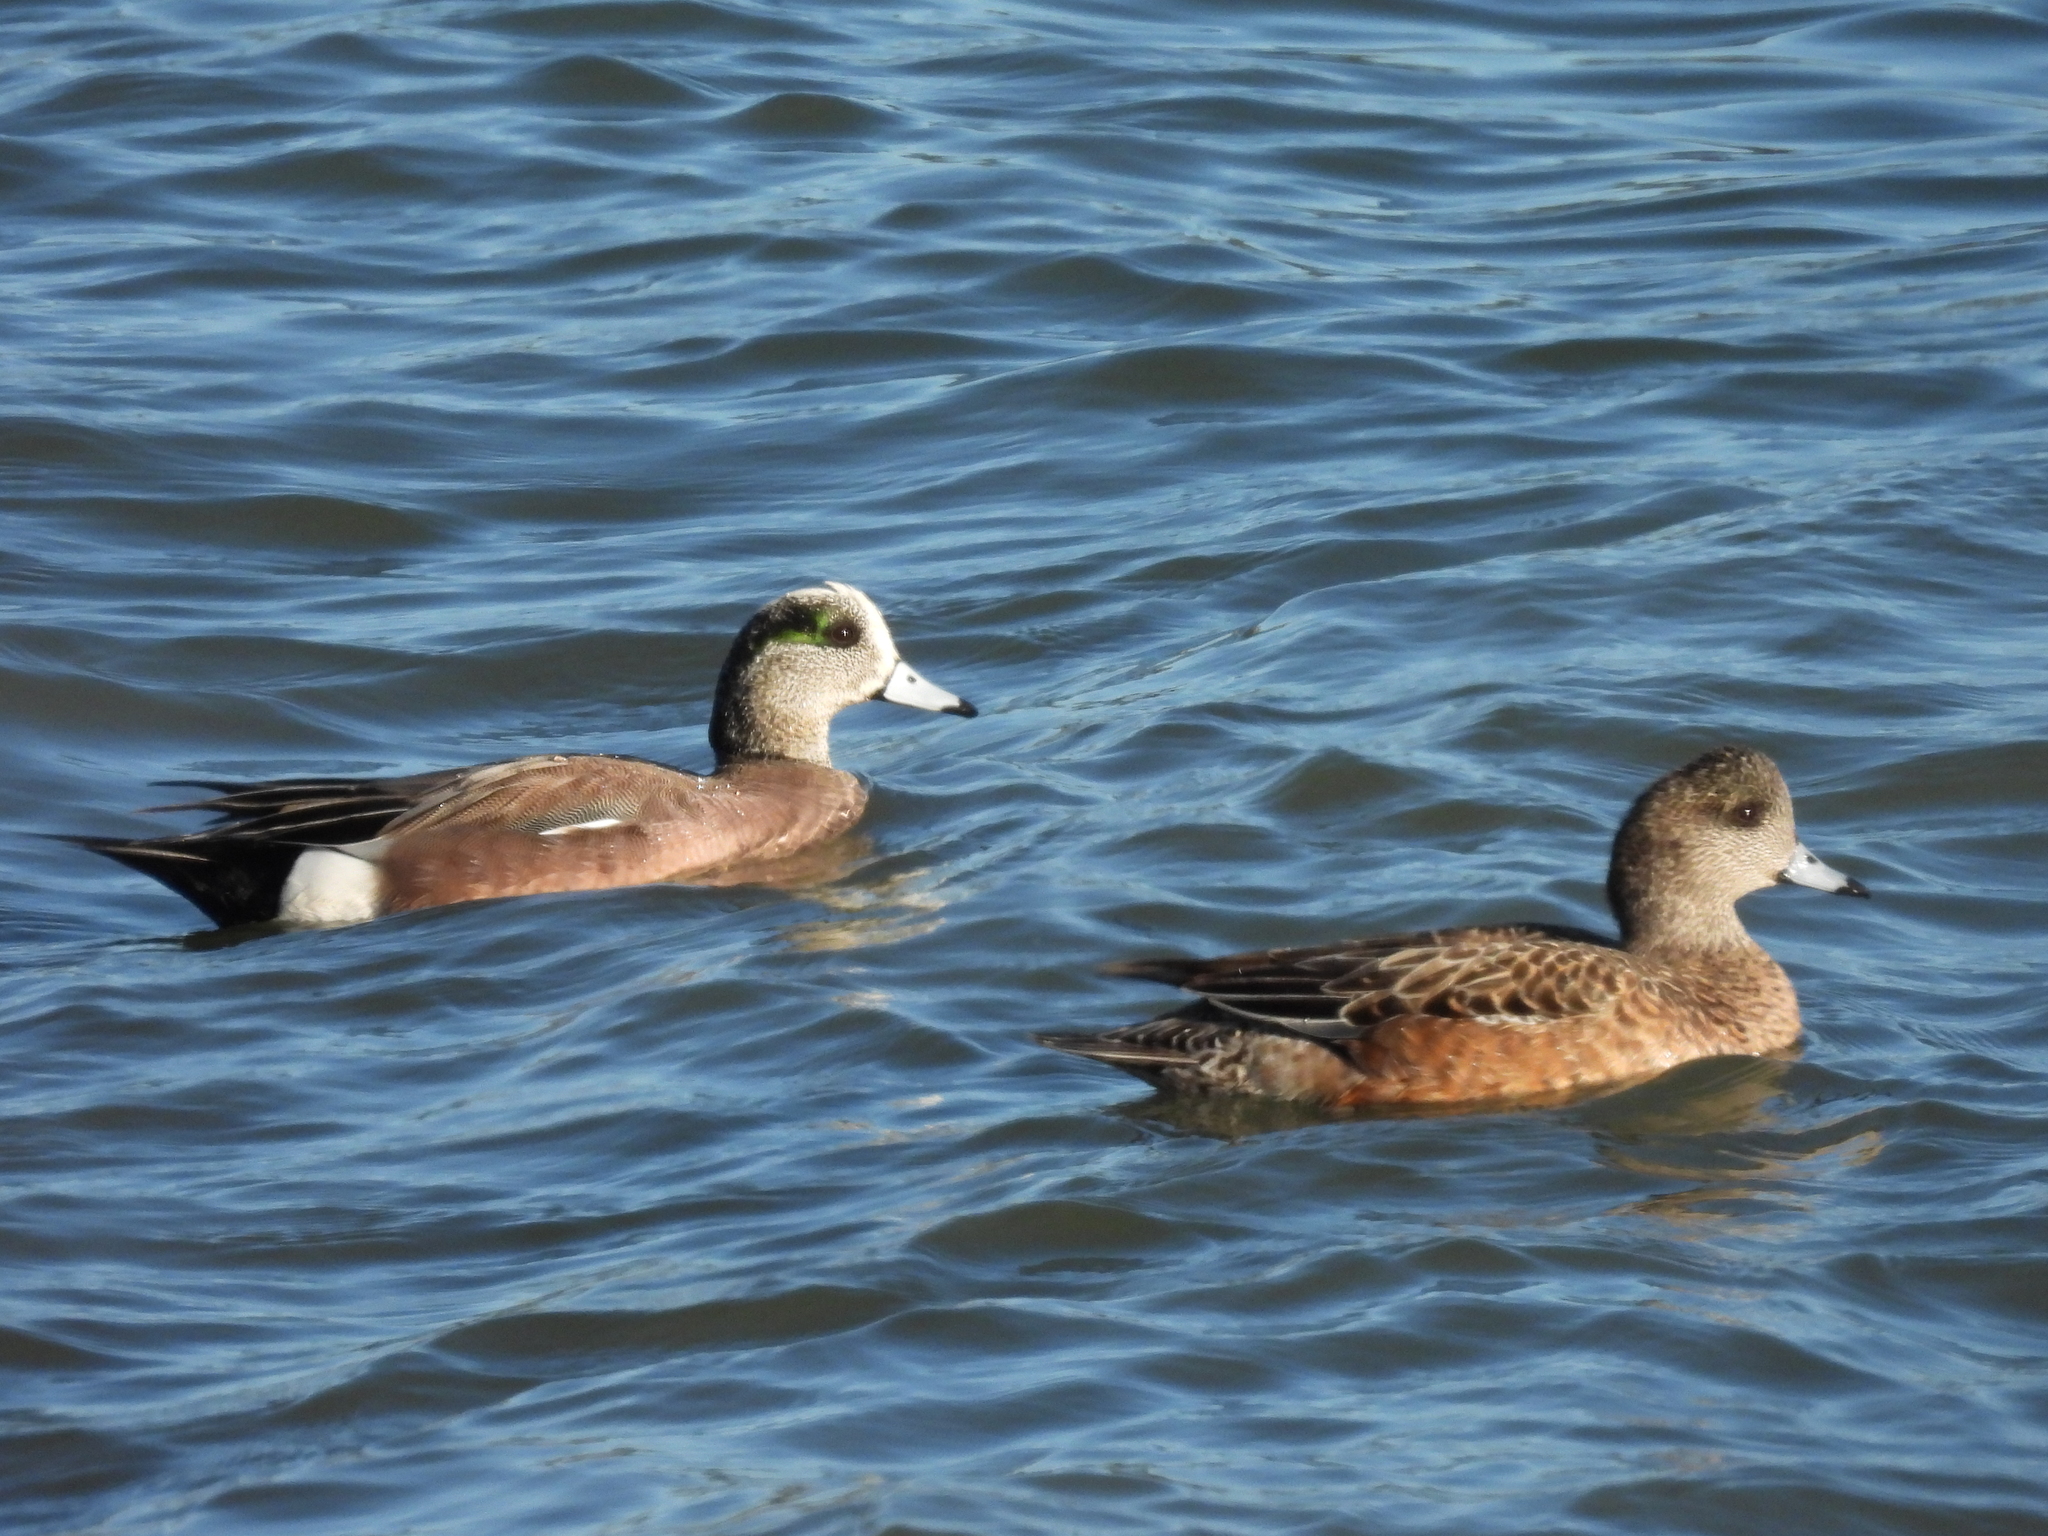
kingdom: Animalia
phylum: Chordata
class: Aves
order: Anseriformes
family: Anatidae
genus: Mareca
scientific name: Mareca americana
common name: American wigeon
